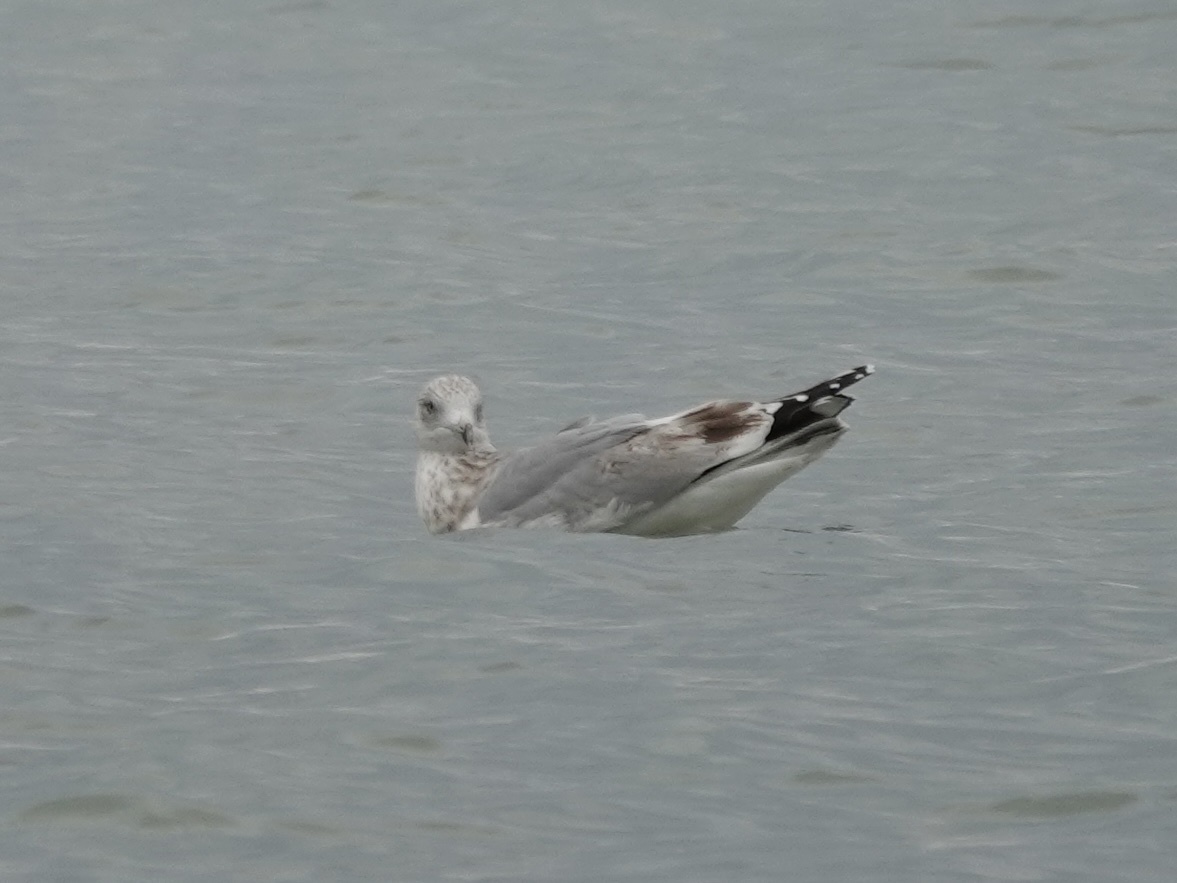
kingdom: Animalia
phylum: Chordata
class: Aves
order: Charadriiformes
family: Laridae
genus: Larus
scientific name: Larus argentatus
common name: Herring gull
